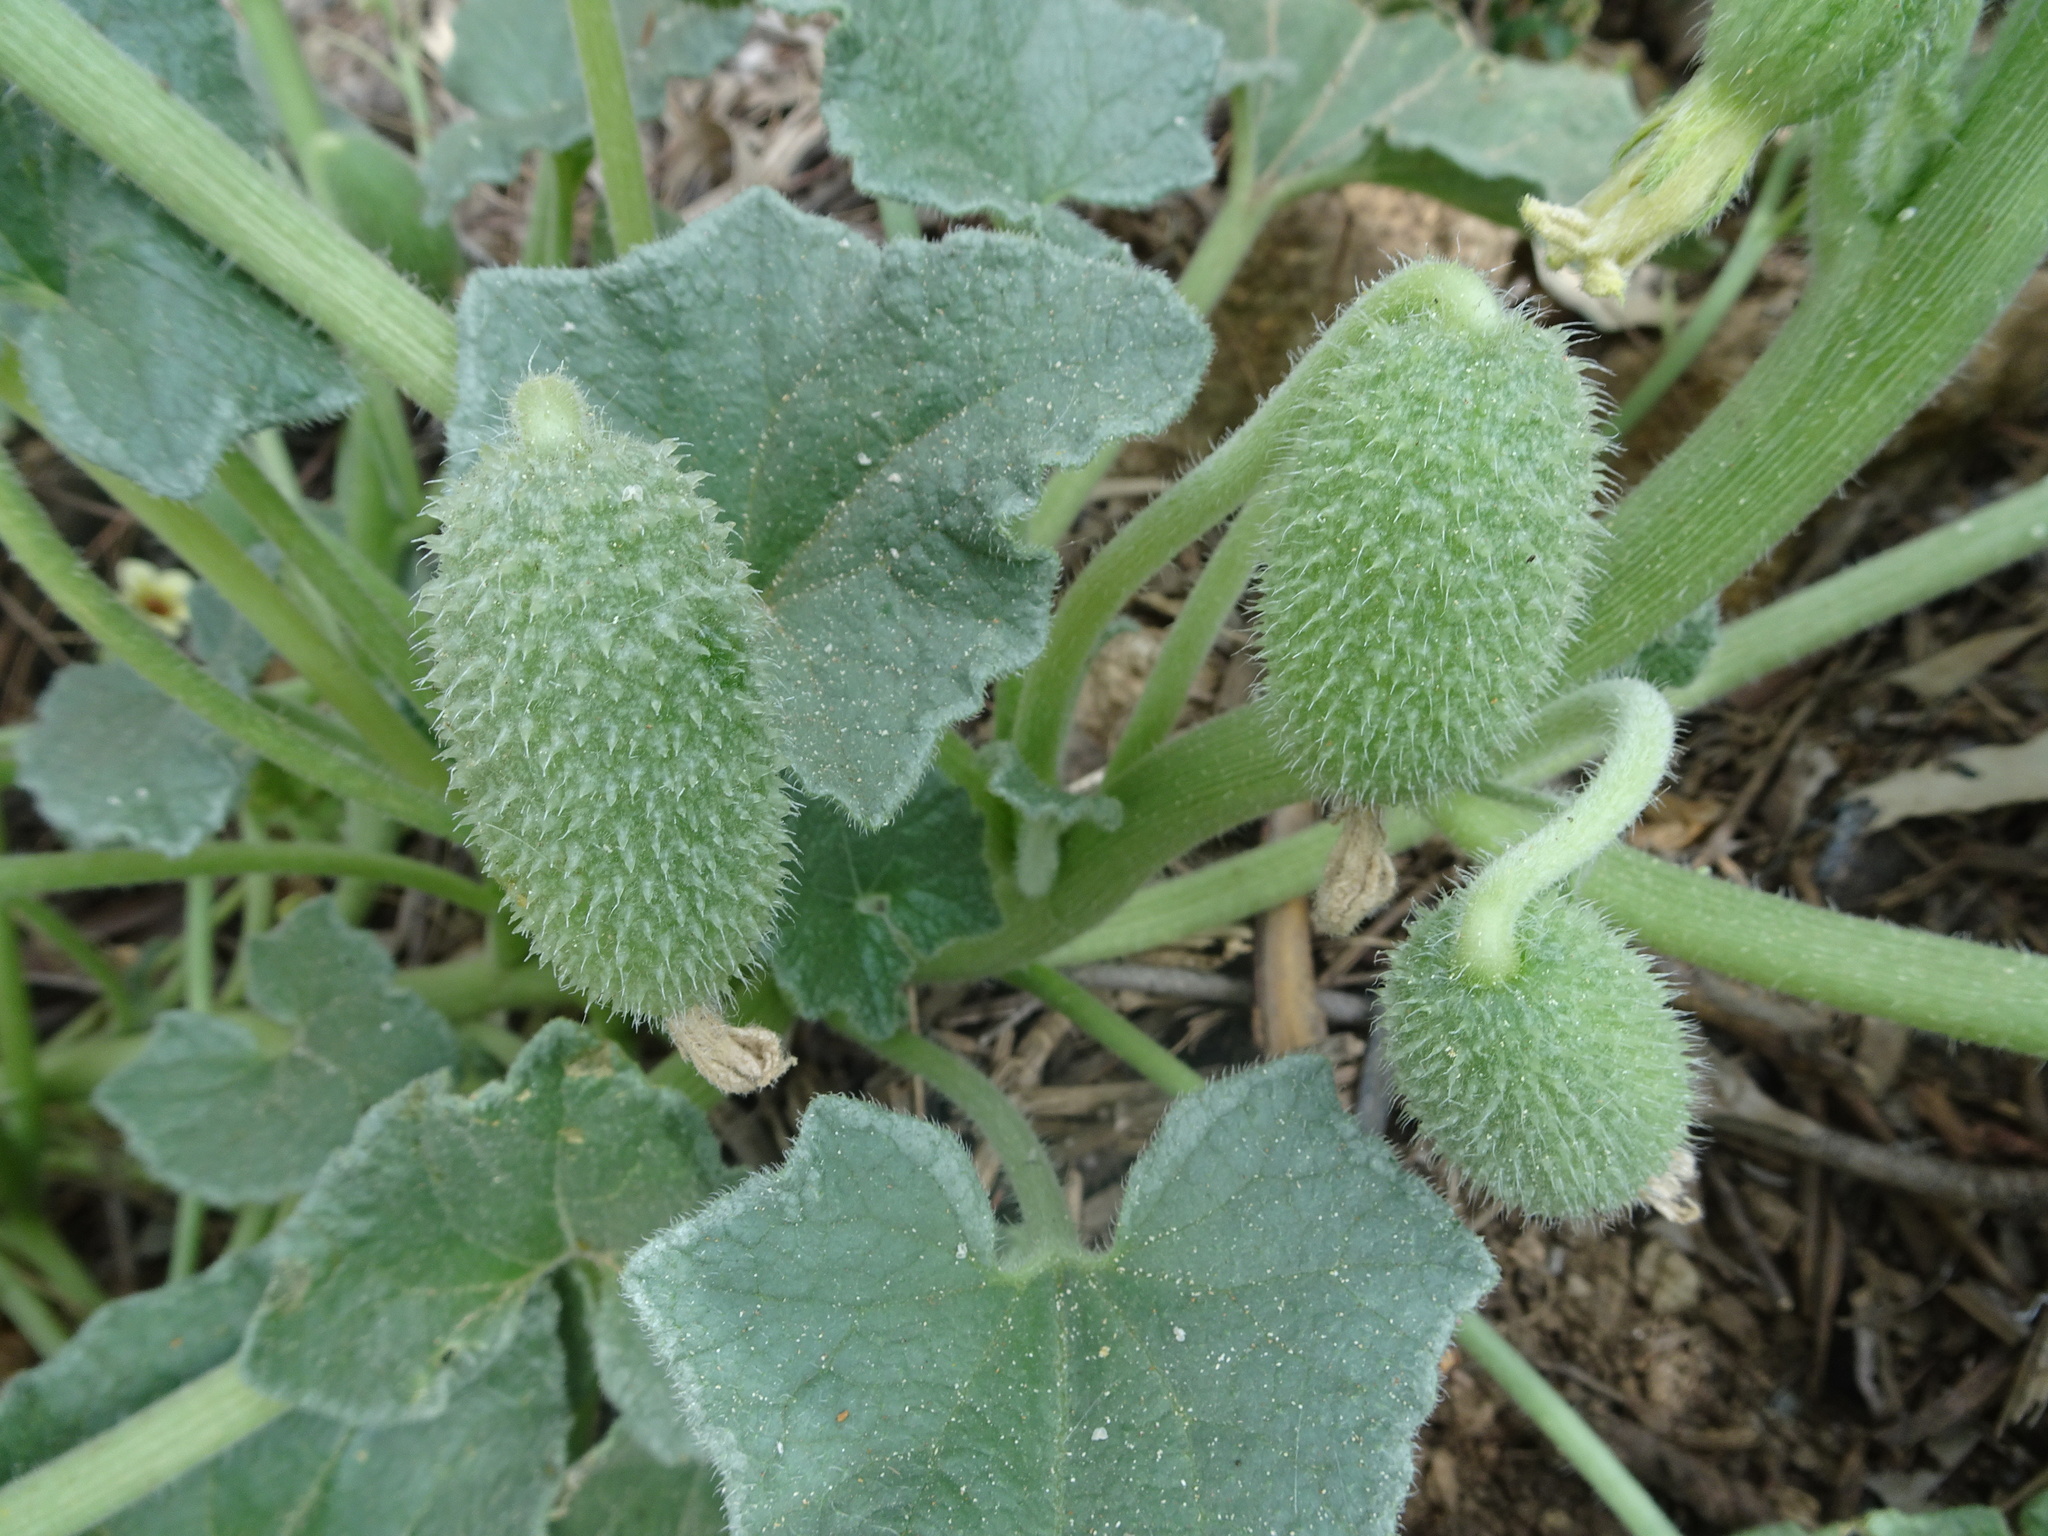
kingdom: Plantae
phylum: Tracheophyta
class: Magnoliopsida
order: Cucurbitales
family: Cucurbitaceae
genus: Ecballium
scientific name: Ecballium elaterium
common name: Squirting cucumber
